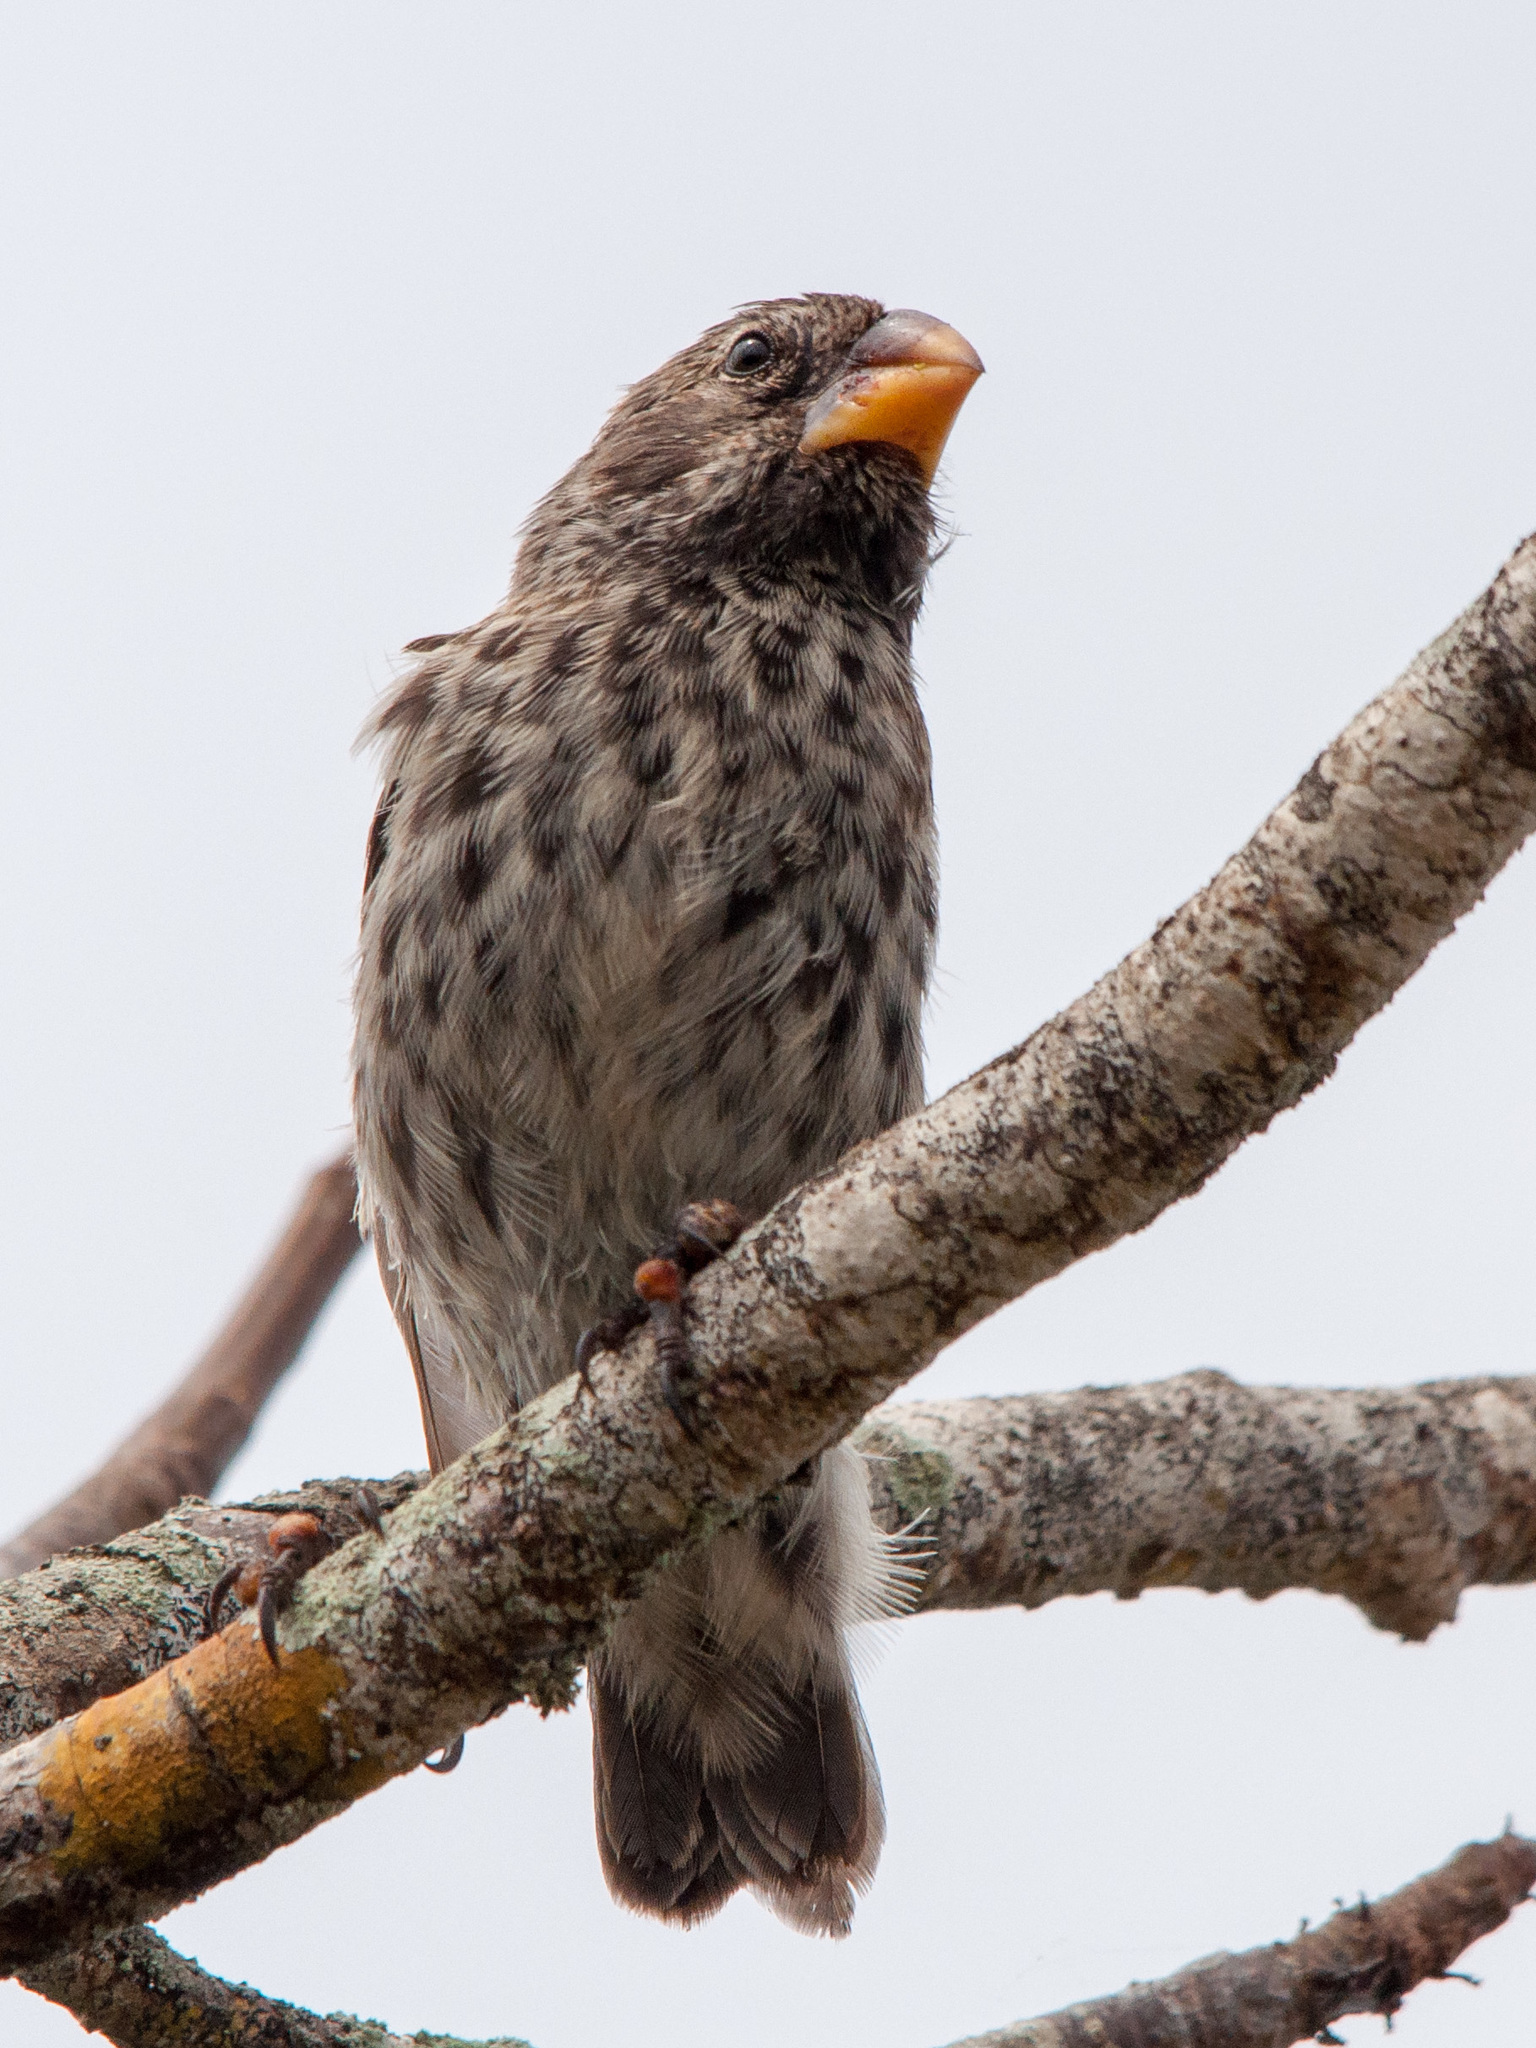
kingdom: Animalia
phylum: Chordata
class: Aves
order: Passeriformes
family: Thraupidae
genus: Geospiza
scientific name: Geospiza fortis
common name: Medium ground finch
